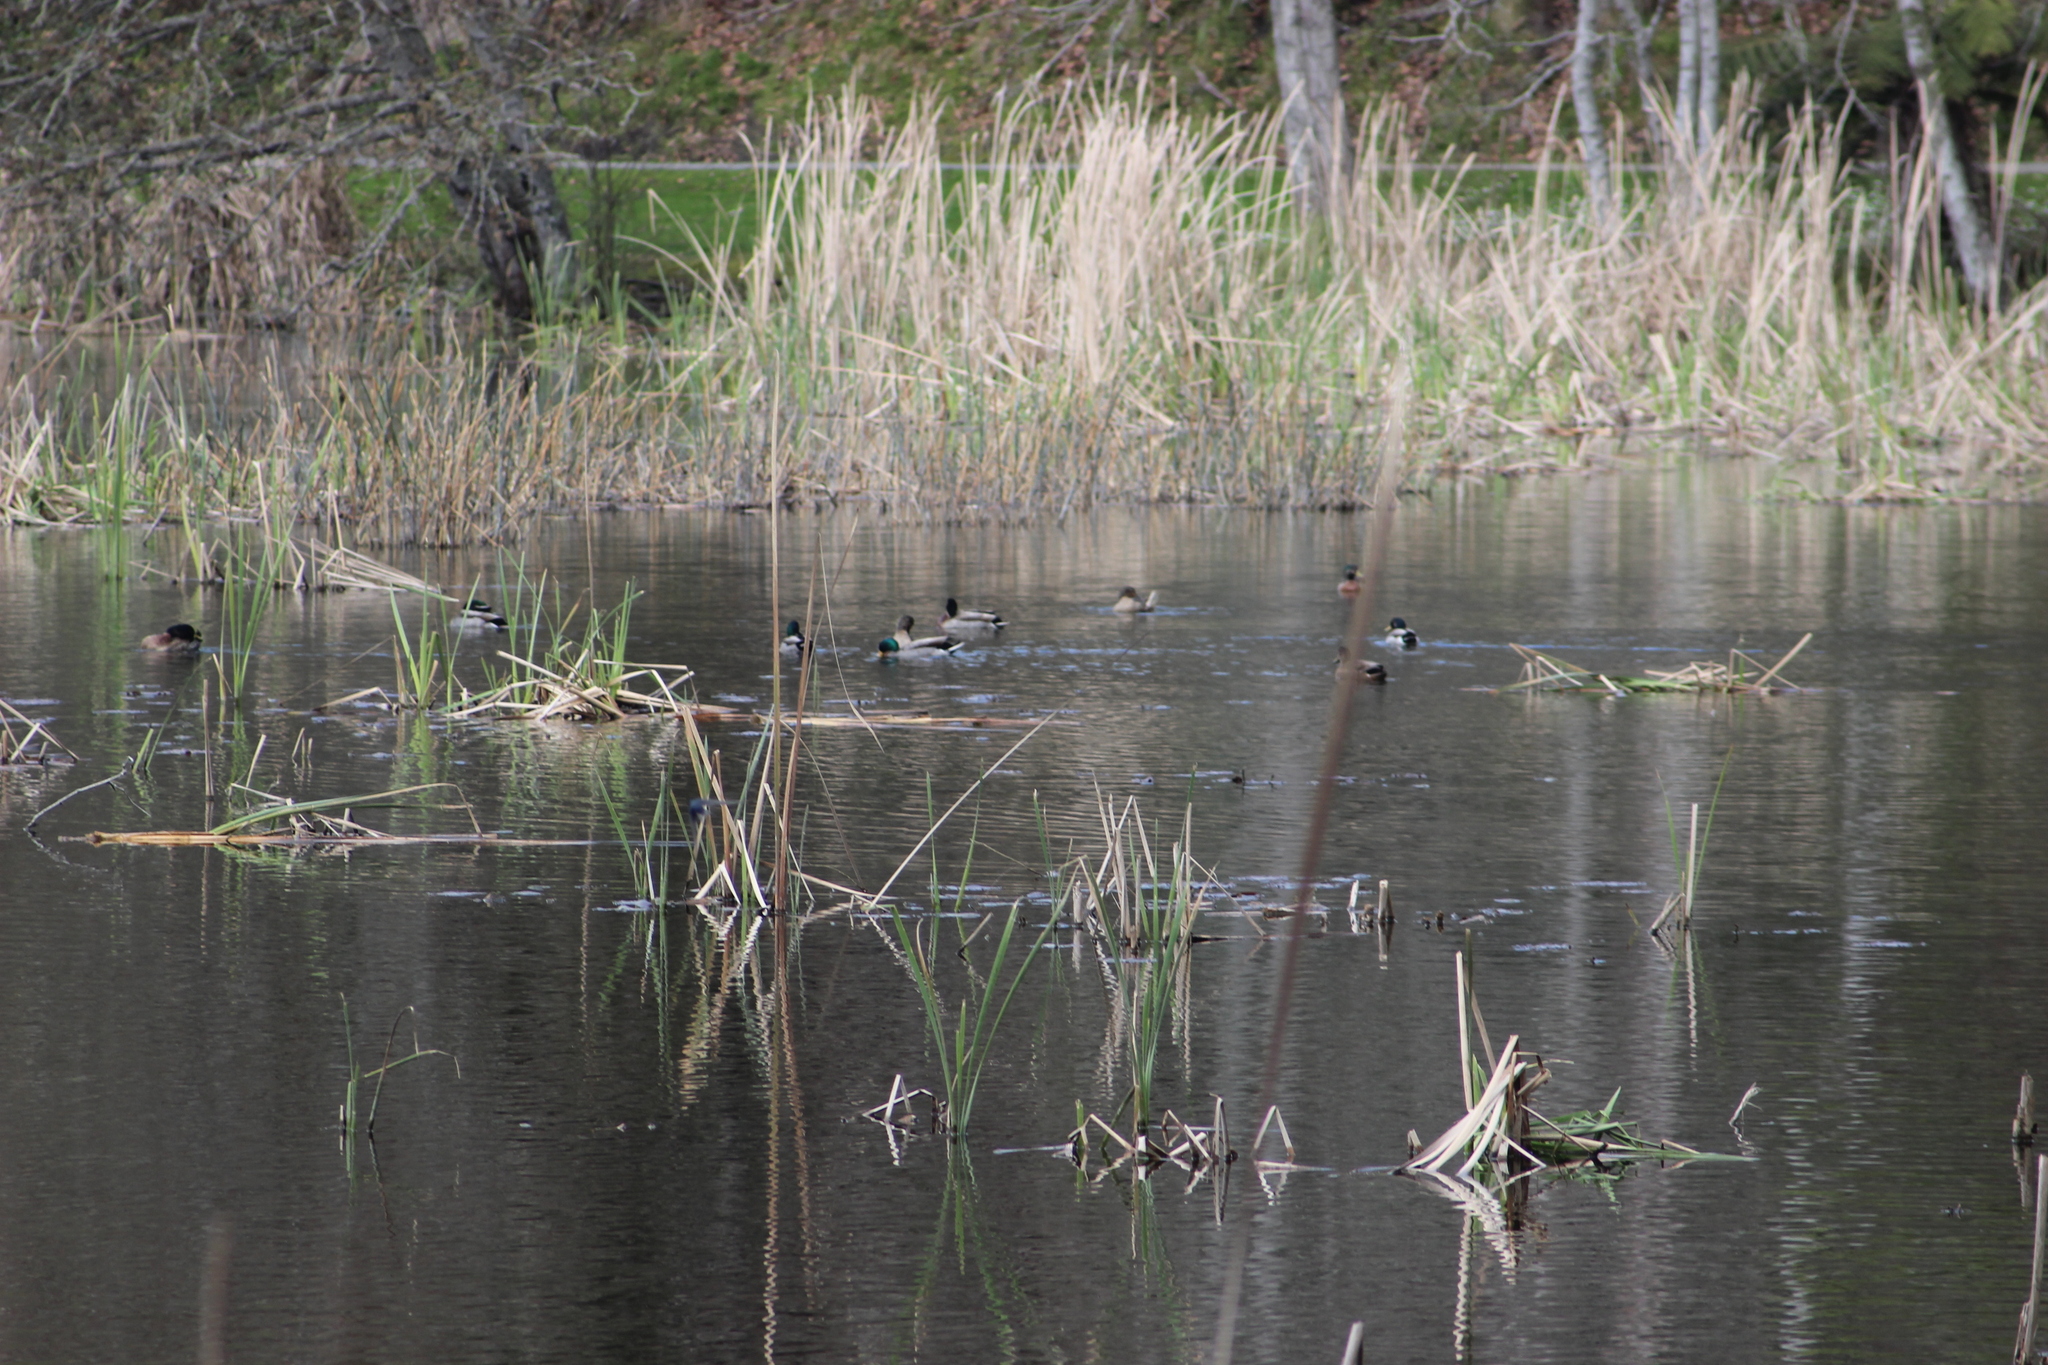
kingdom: Animalia
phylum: Chordata
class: Aves
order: Anseriformes
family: Anatidae
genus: Anas
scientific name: Anas platyrhynchos
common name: Mallard
